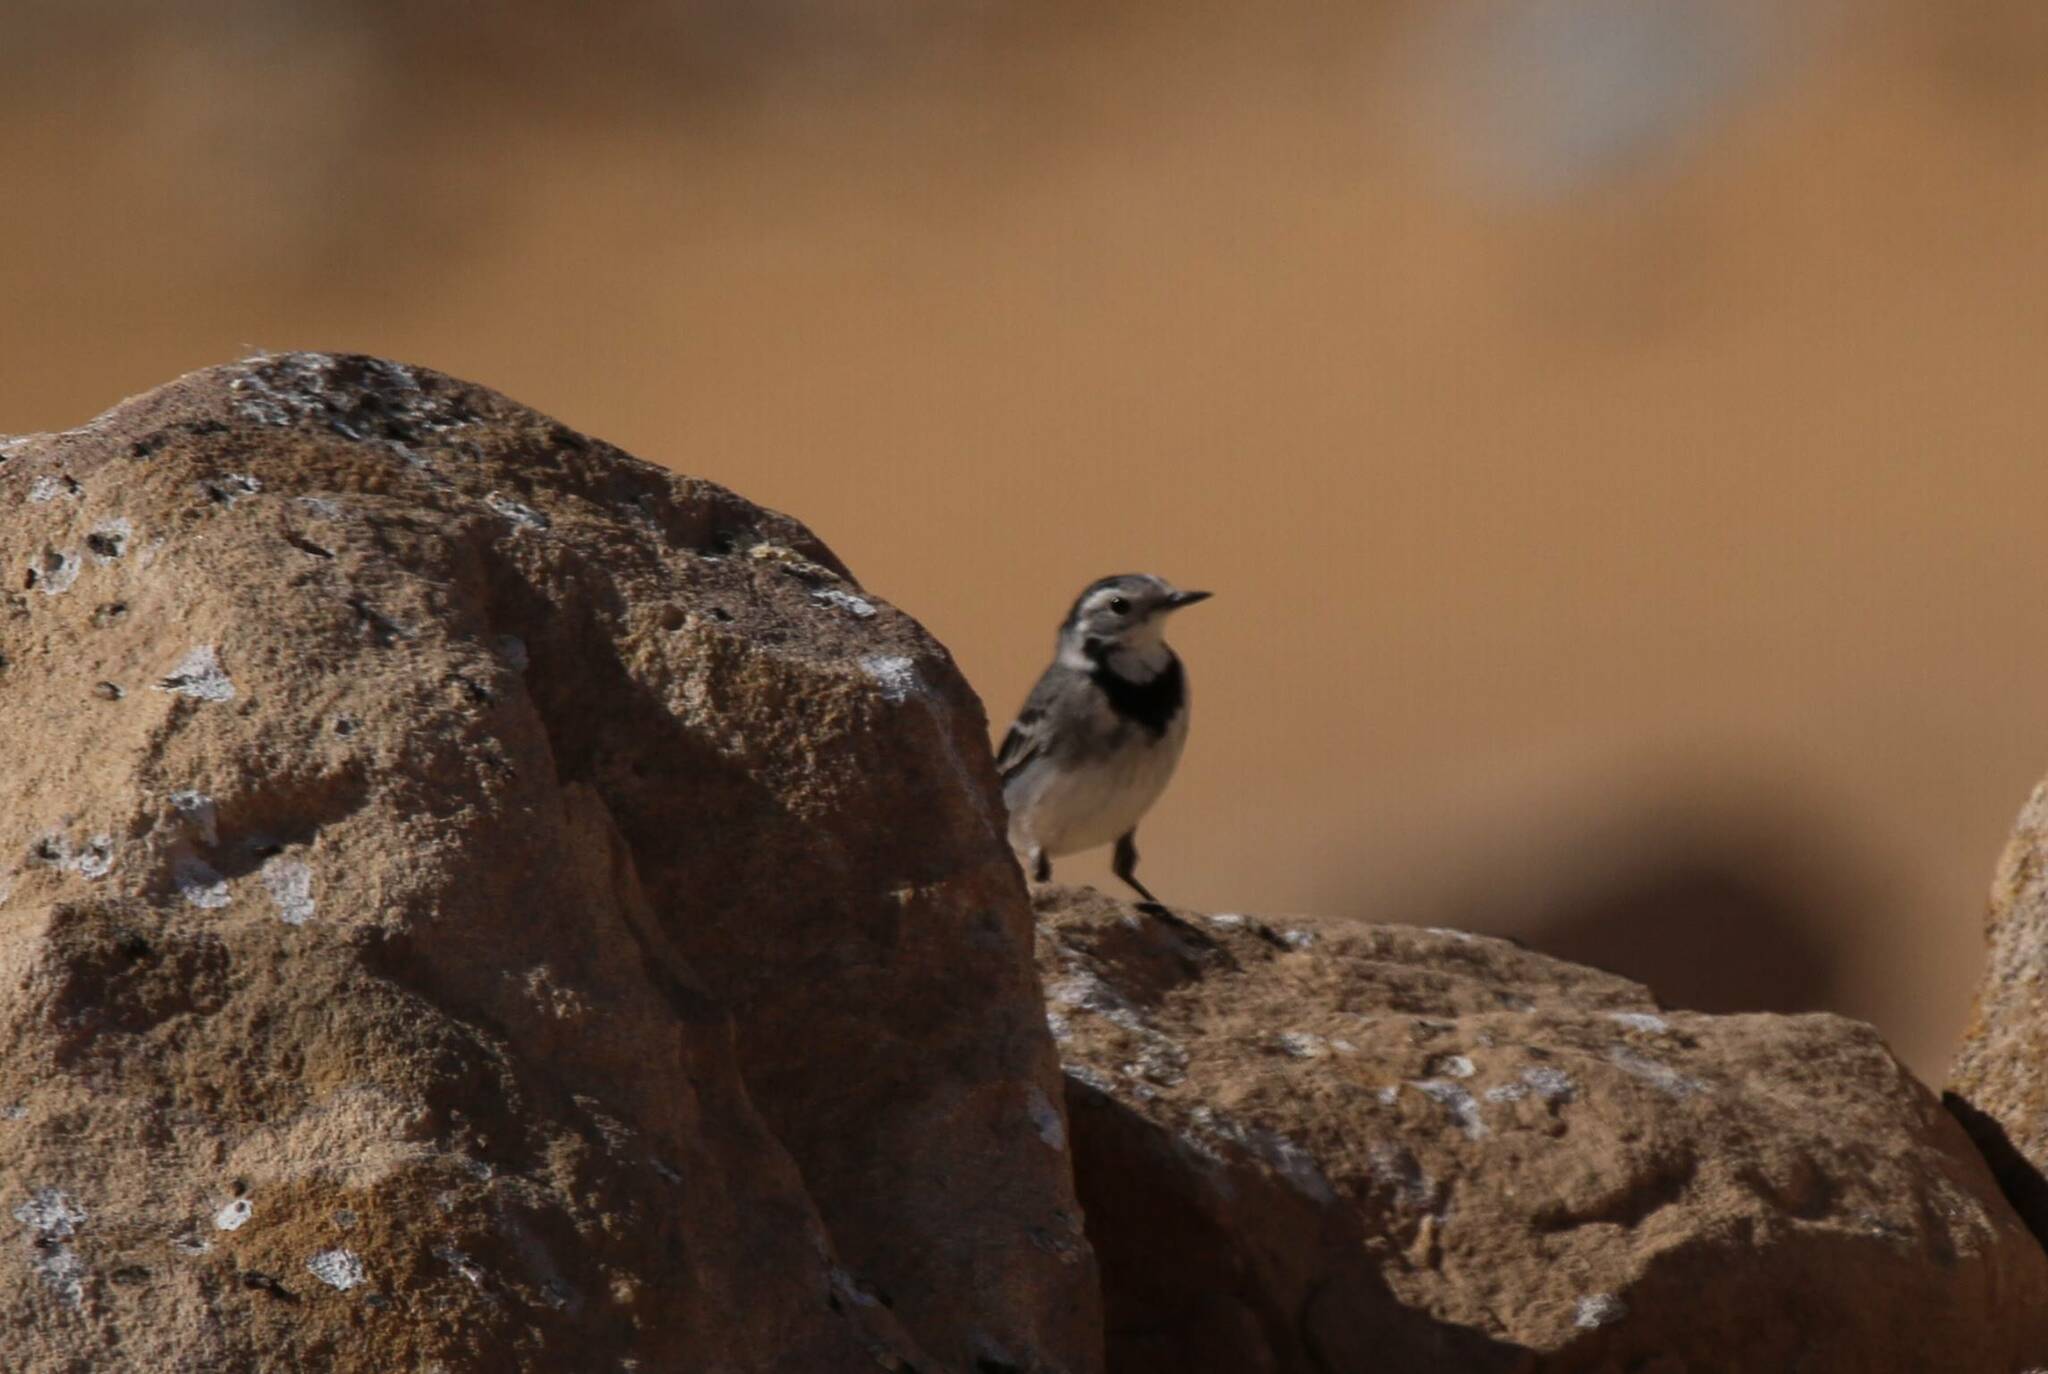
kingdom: Animalia
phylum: Chordata
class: Aves
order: Passeriformes
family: Motacillidae
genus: Motacilla
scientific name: Motacilla alba
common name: White wagtail
